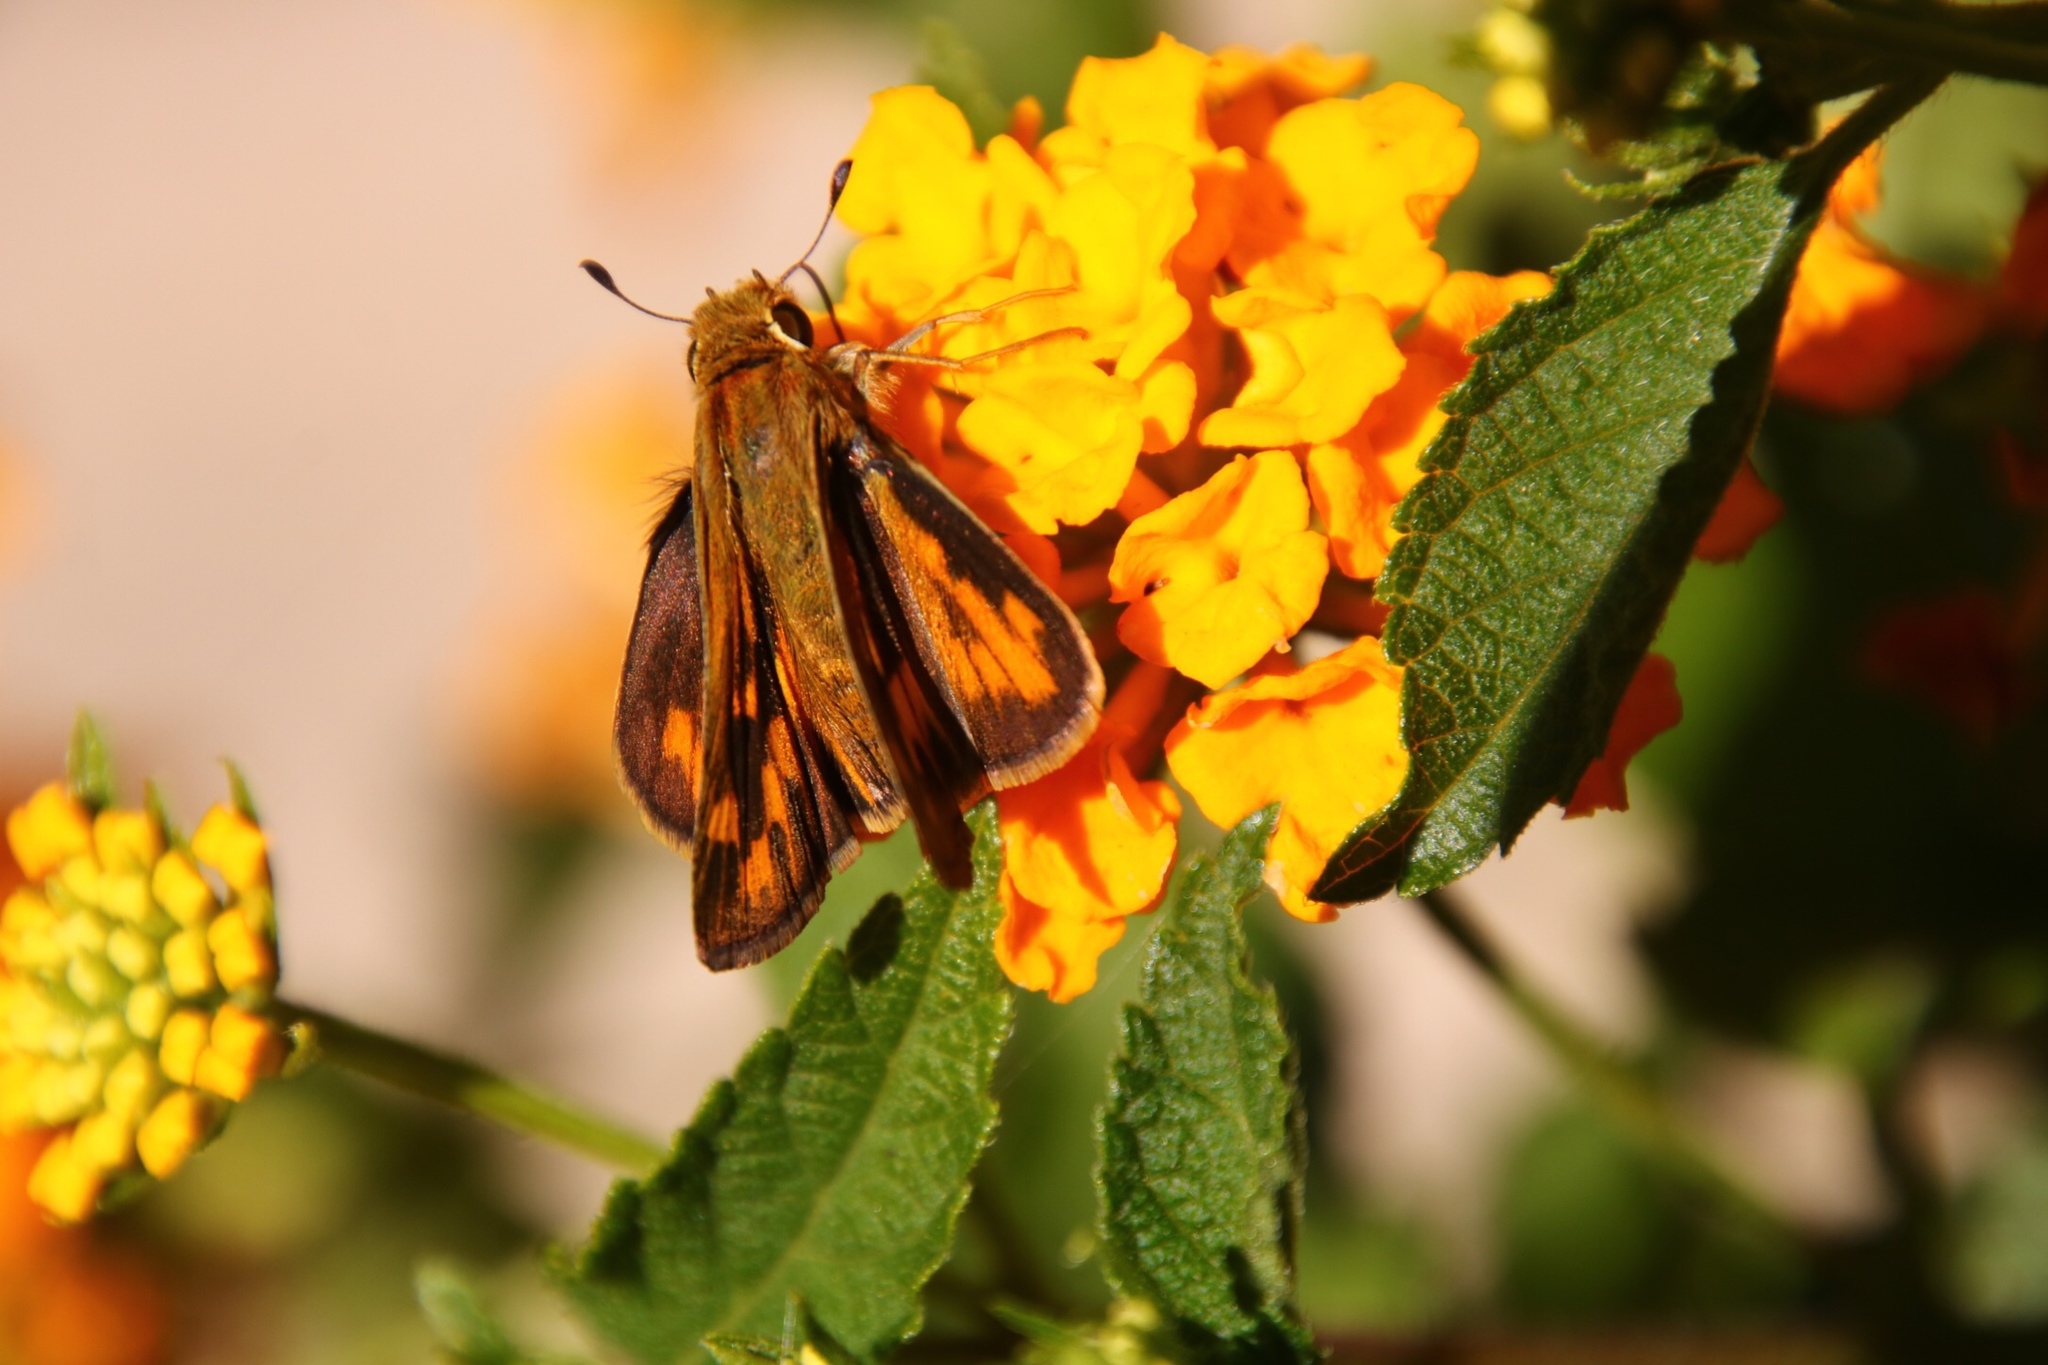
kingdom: Animalia
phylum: Arthropoda
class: Insecta
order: Lepidoptera
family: Hesperiidae
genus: Hylephila
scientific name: Hylephila phyleus
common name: Fiery skipper
